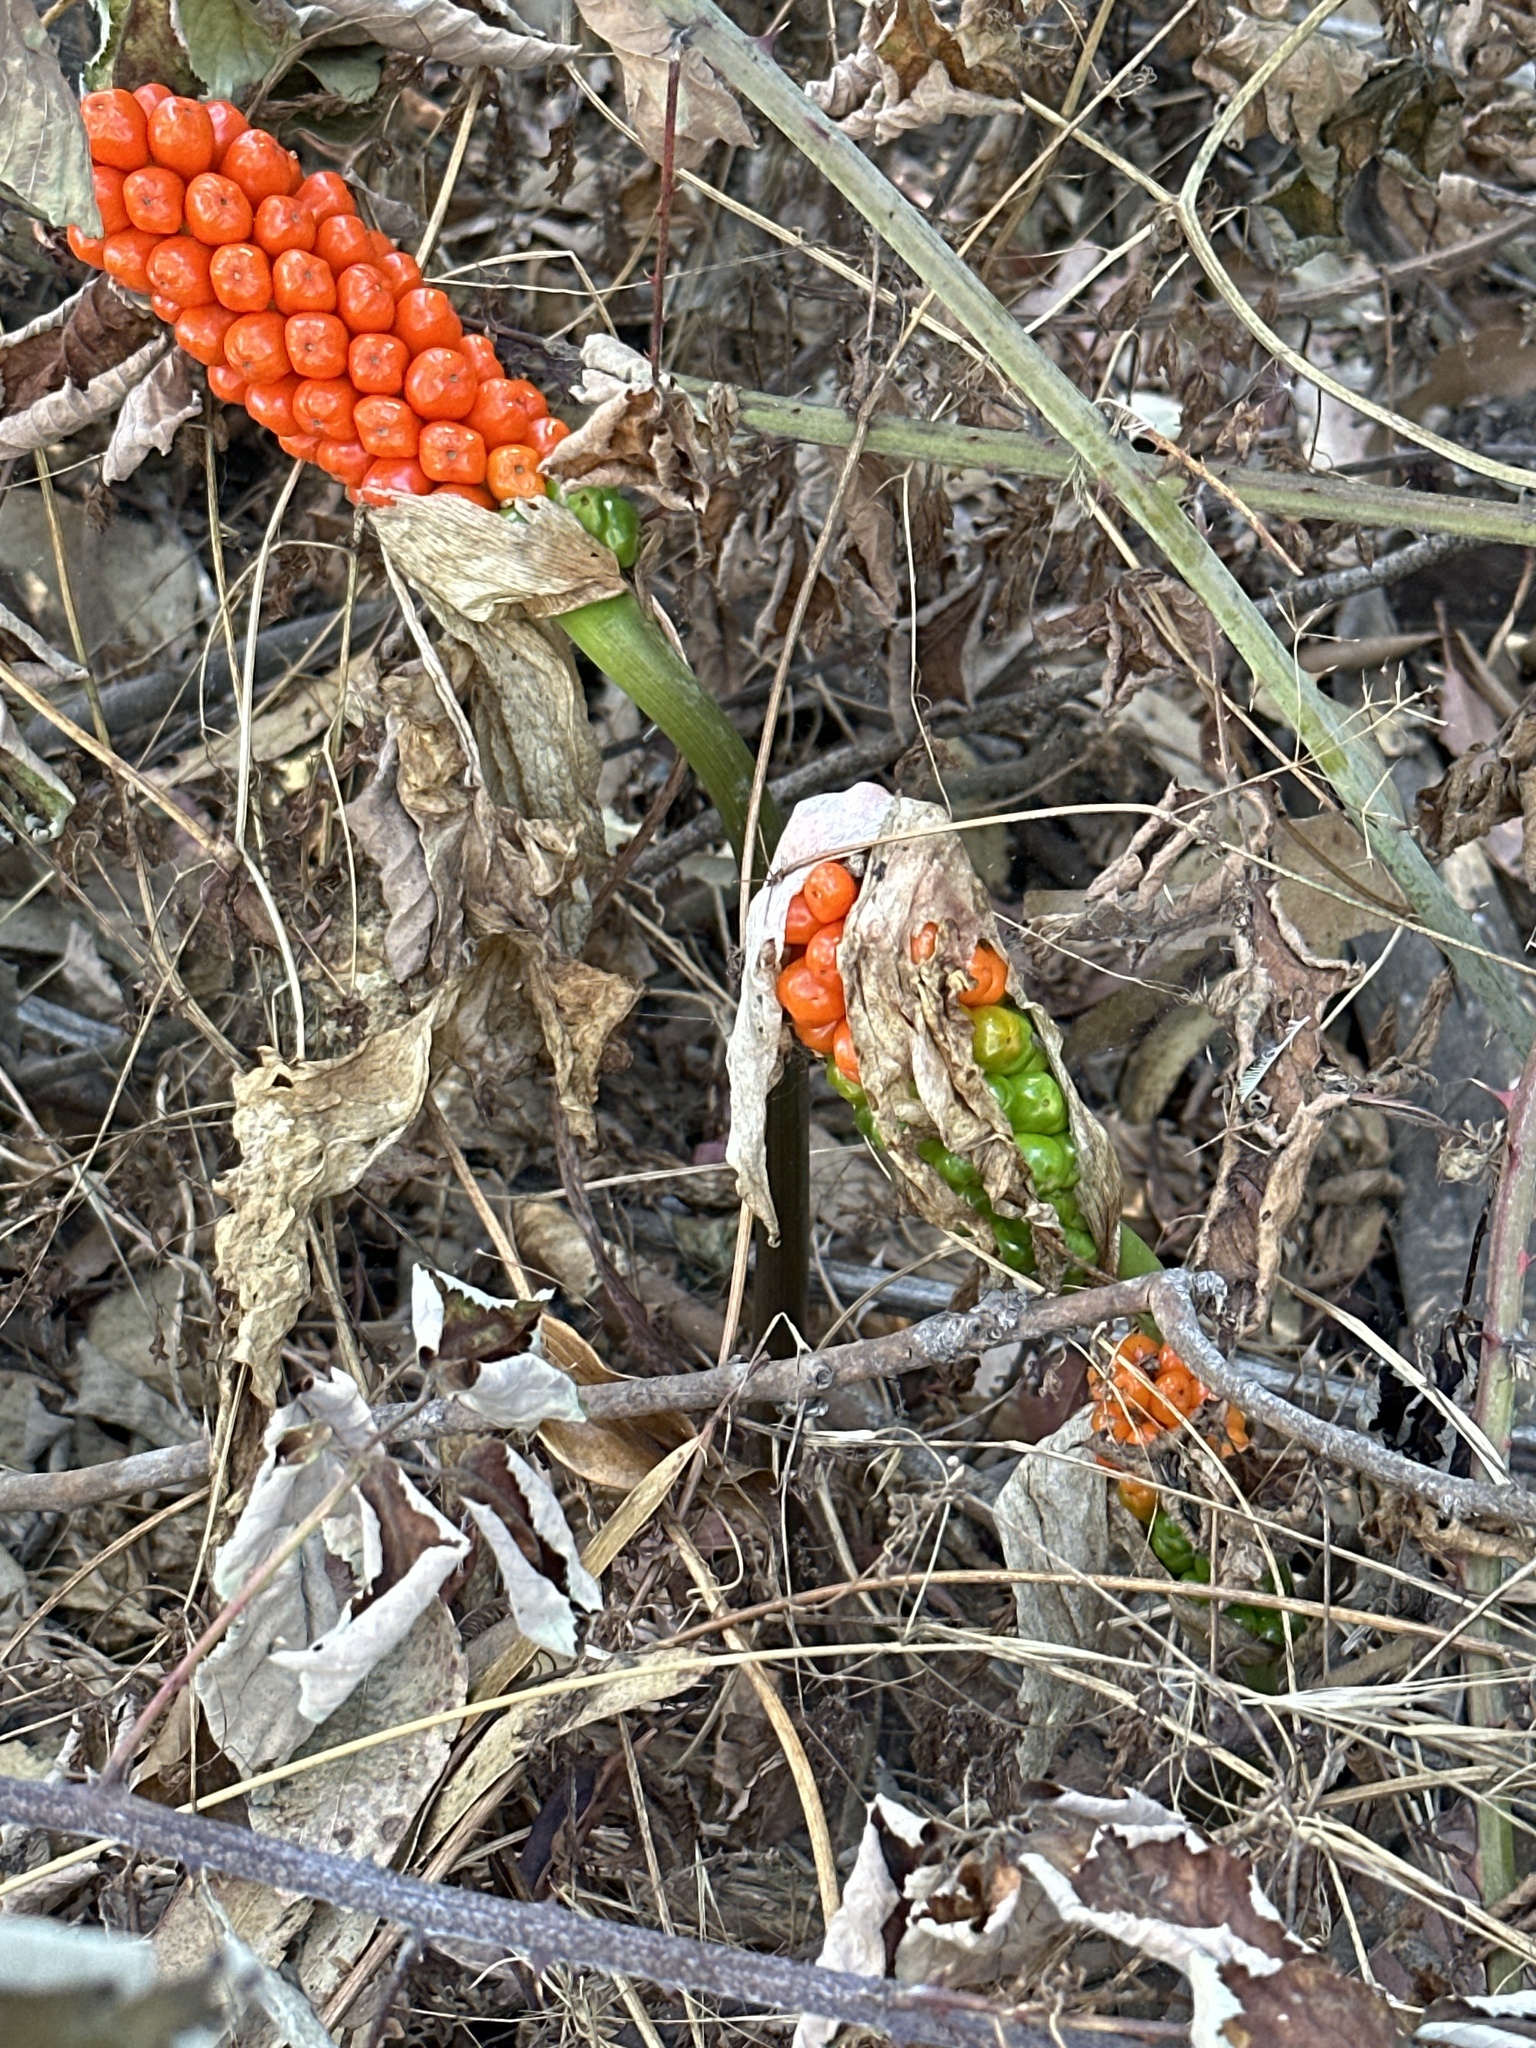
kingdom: Plantae
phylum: Tracheophyta
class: Liliopsida
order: Alismatales
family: Araceae
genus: Arum
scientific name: Arum italicum
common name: Italian lords-and-ladies
